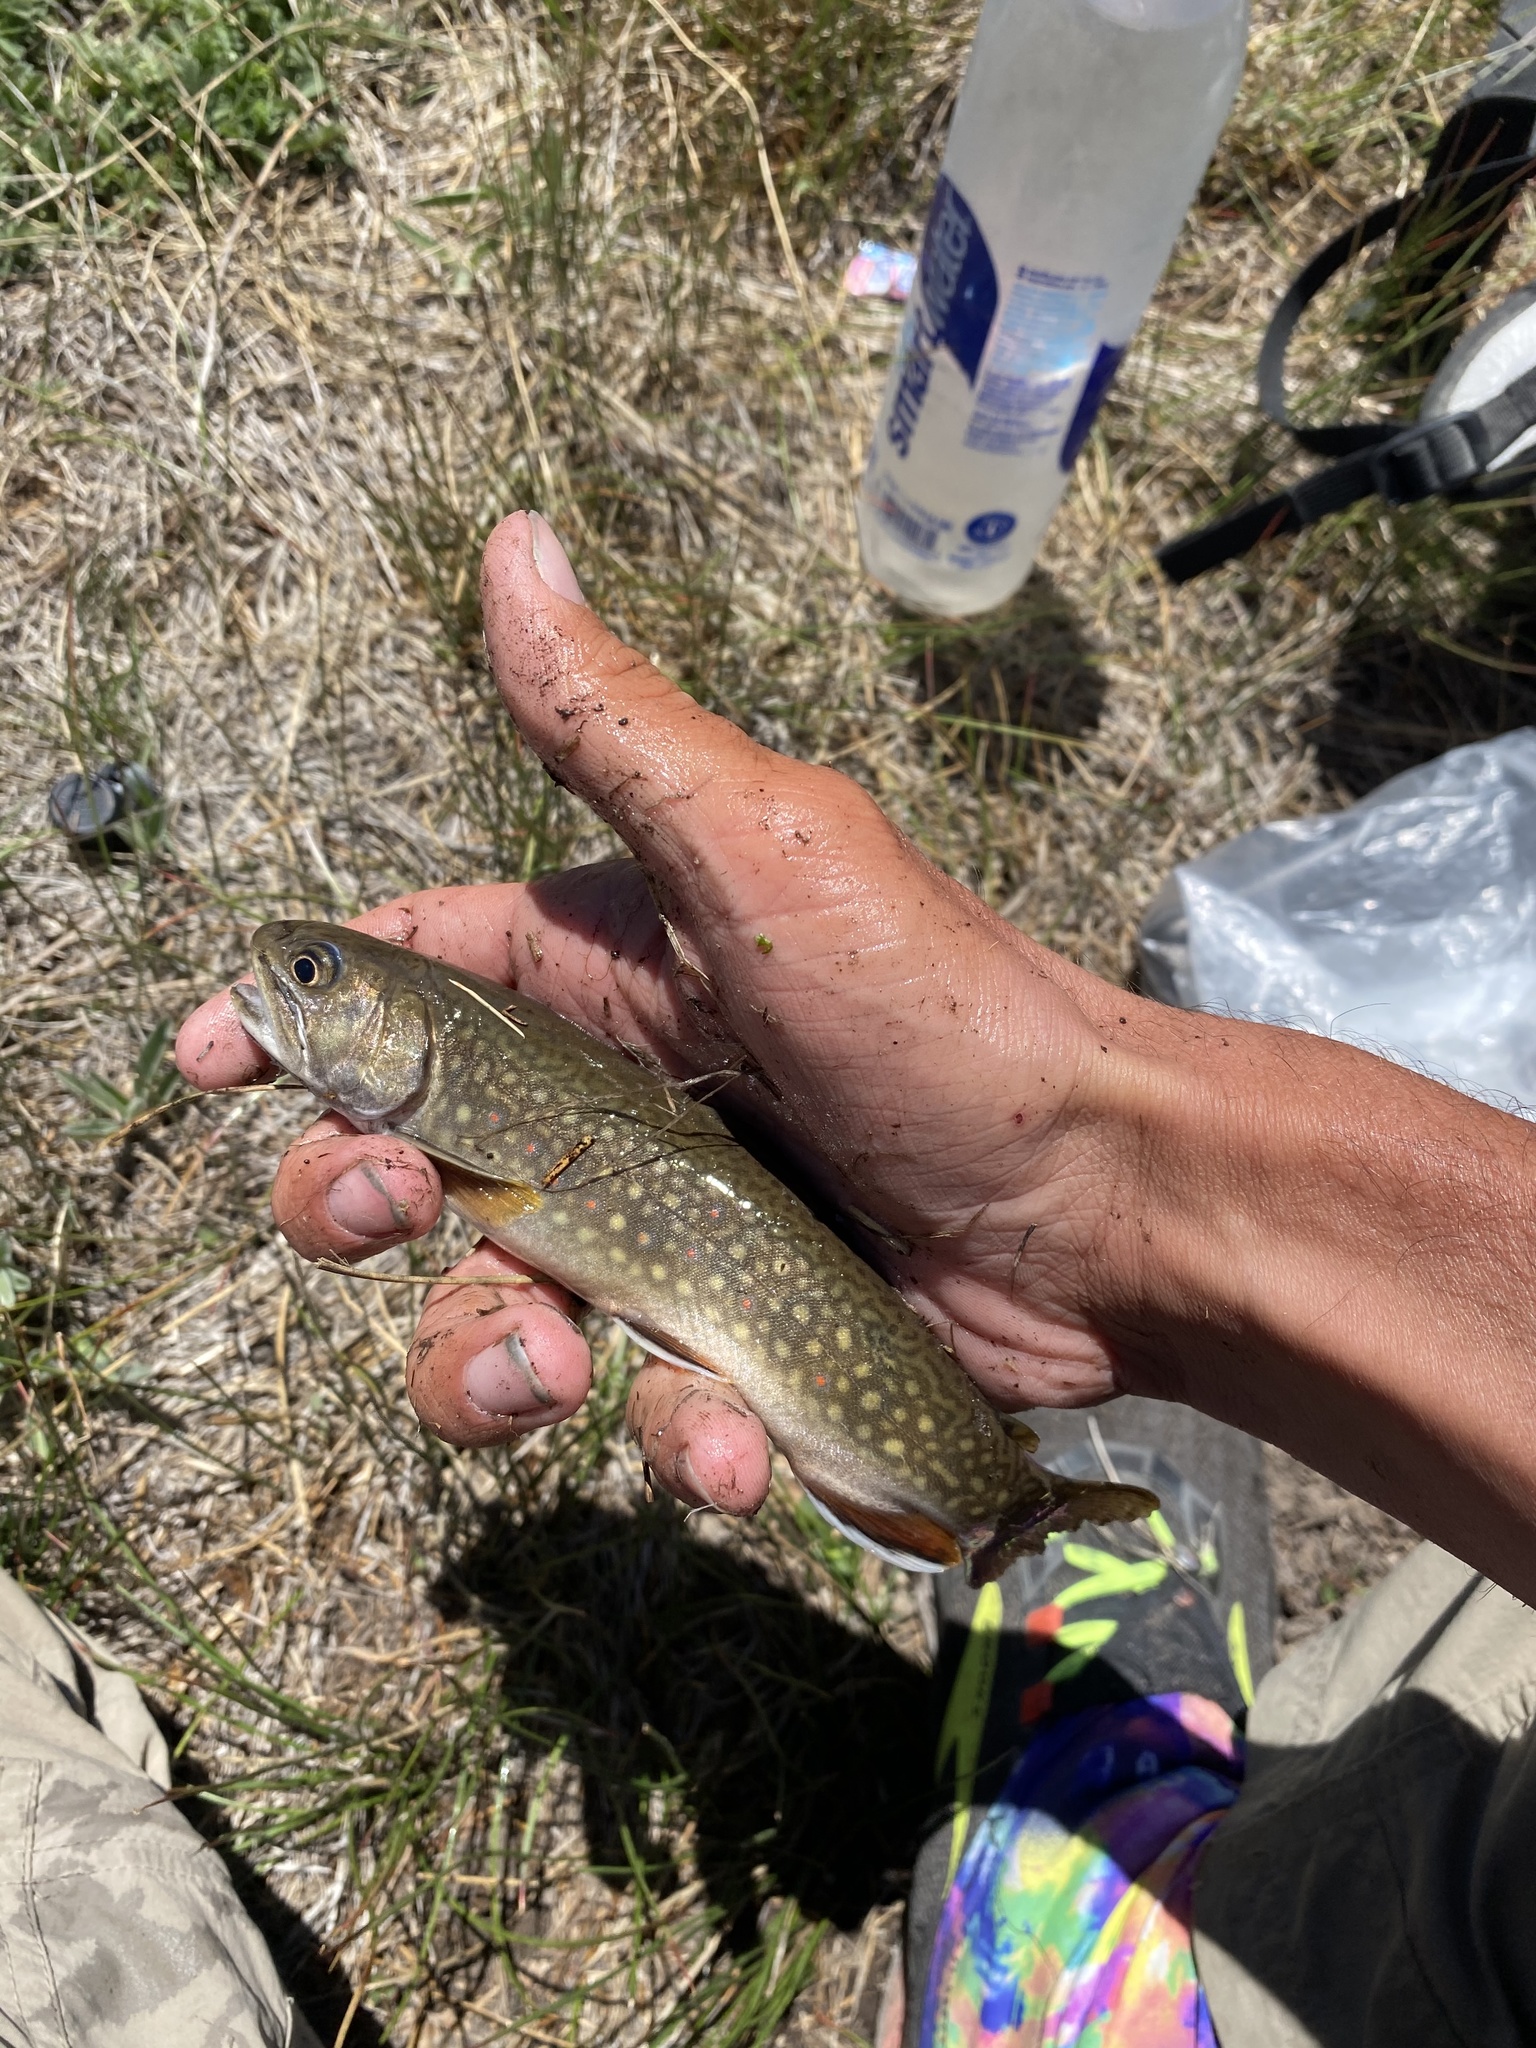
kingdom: Animalia
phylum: Chordata
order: Salmoniformes
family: Salmonidae
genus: Salvelinus
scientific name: Salvelinus fontinalis
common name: Brook trout
